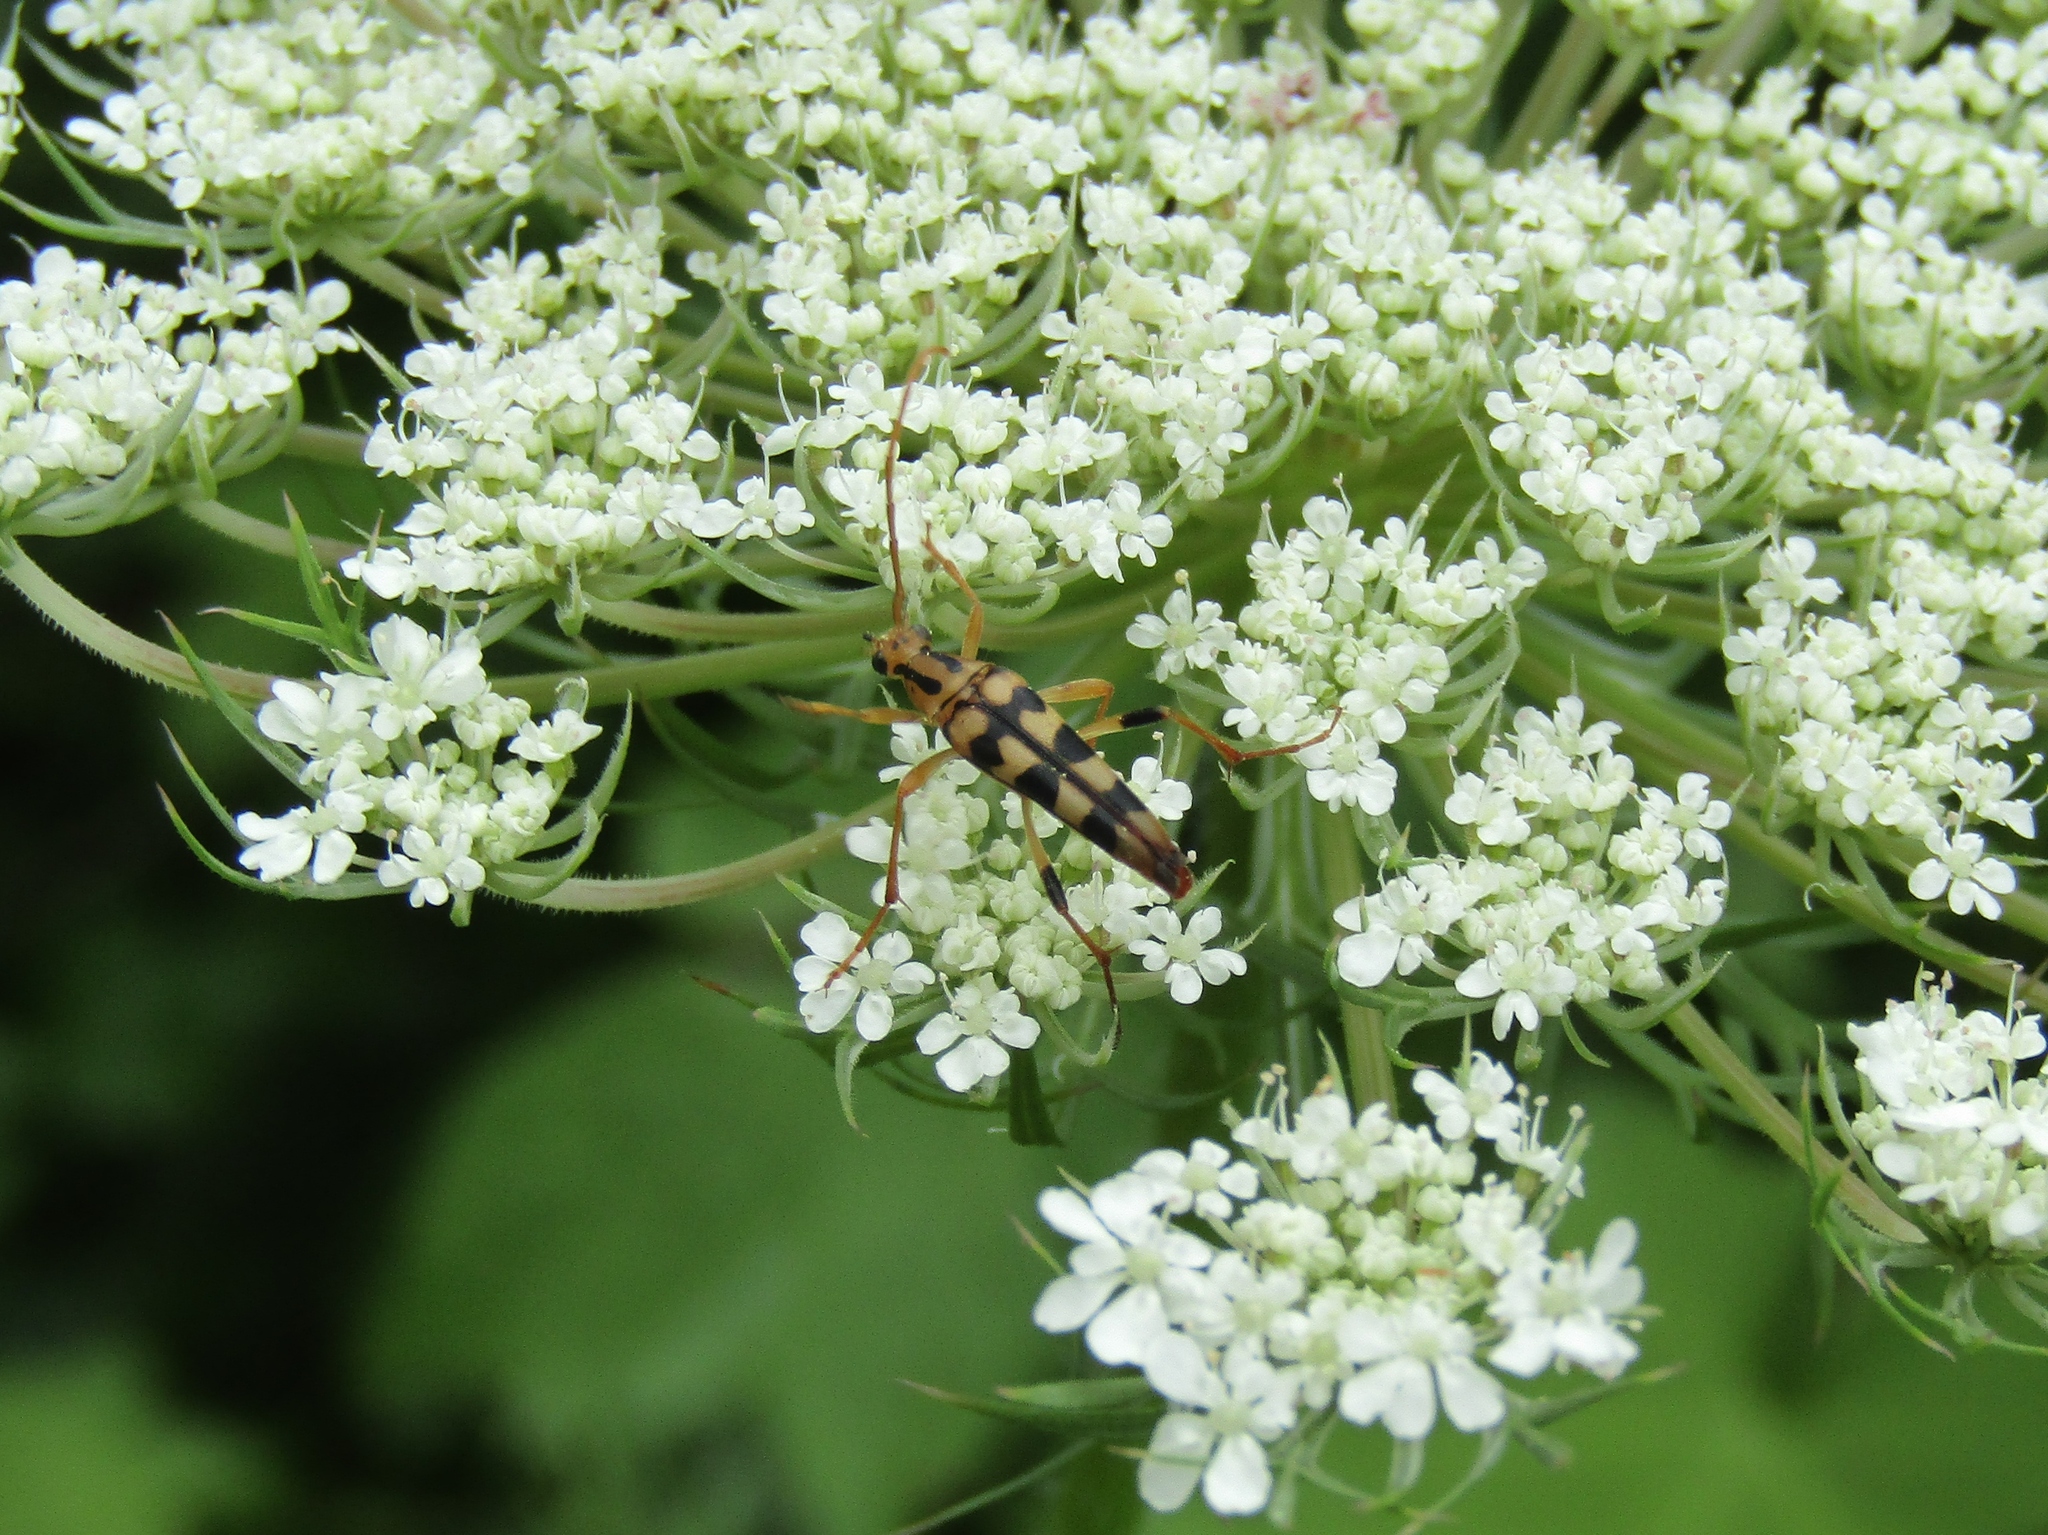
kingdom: Animalia
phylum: Arthropoda
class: Insecta
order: Coleoptera
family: Cerambycidae
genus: Strangalia
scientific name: Strangalia luteicornis
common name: Yellow-horned flower longhorn beetle
